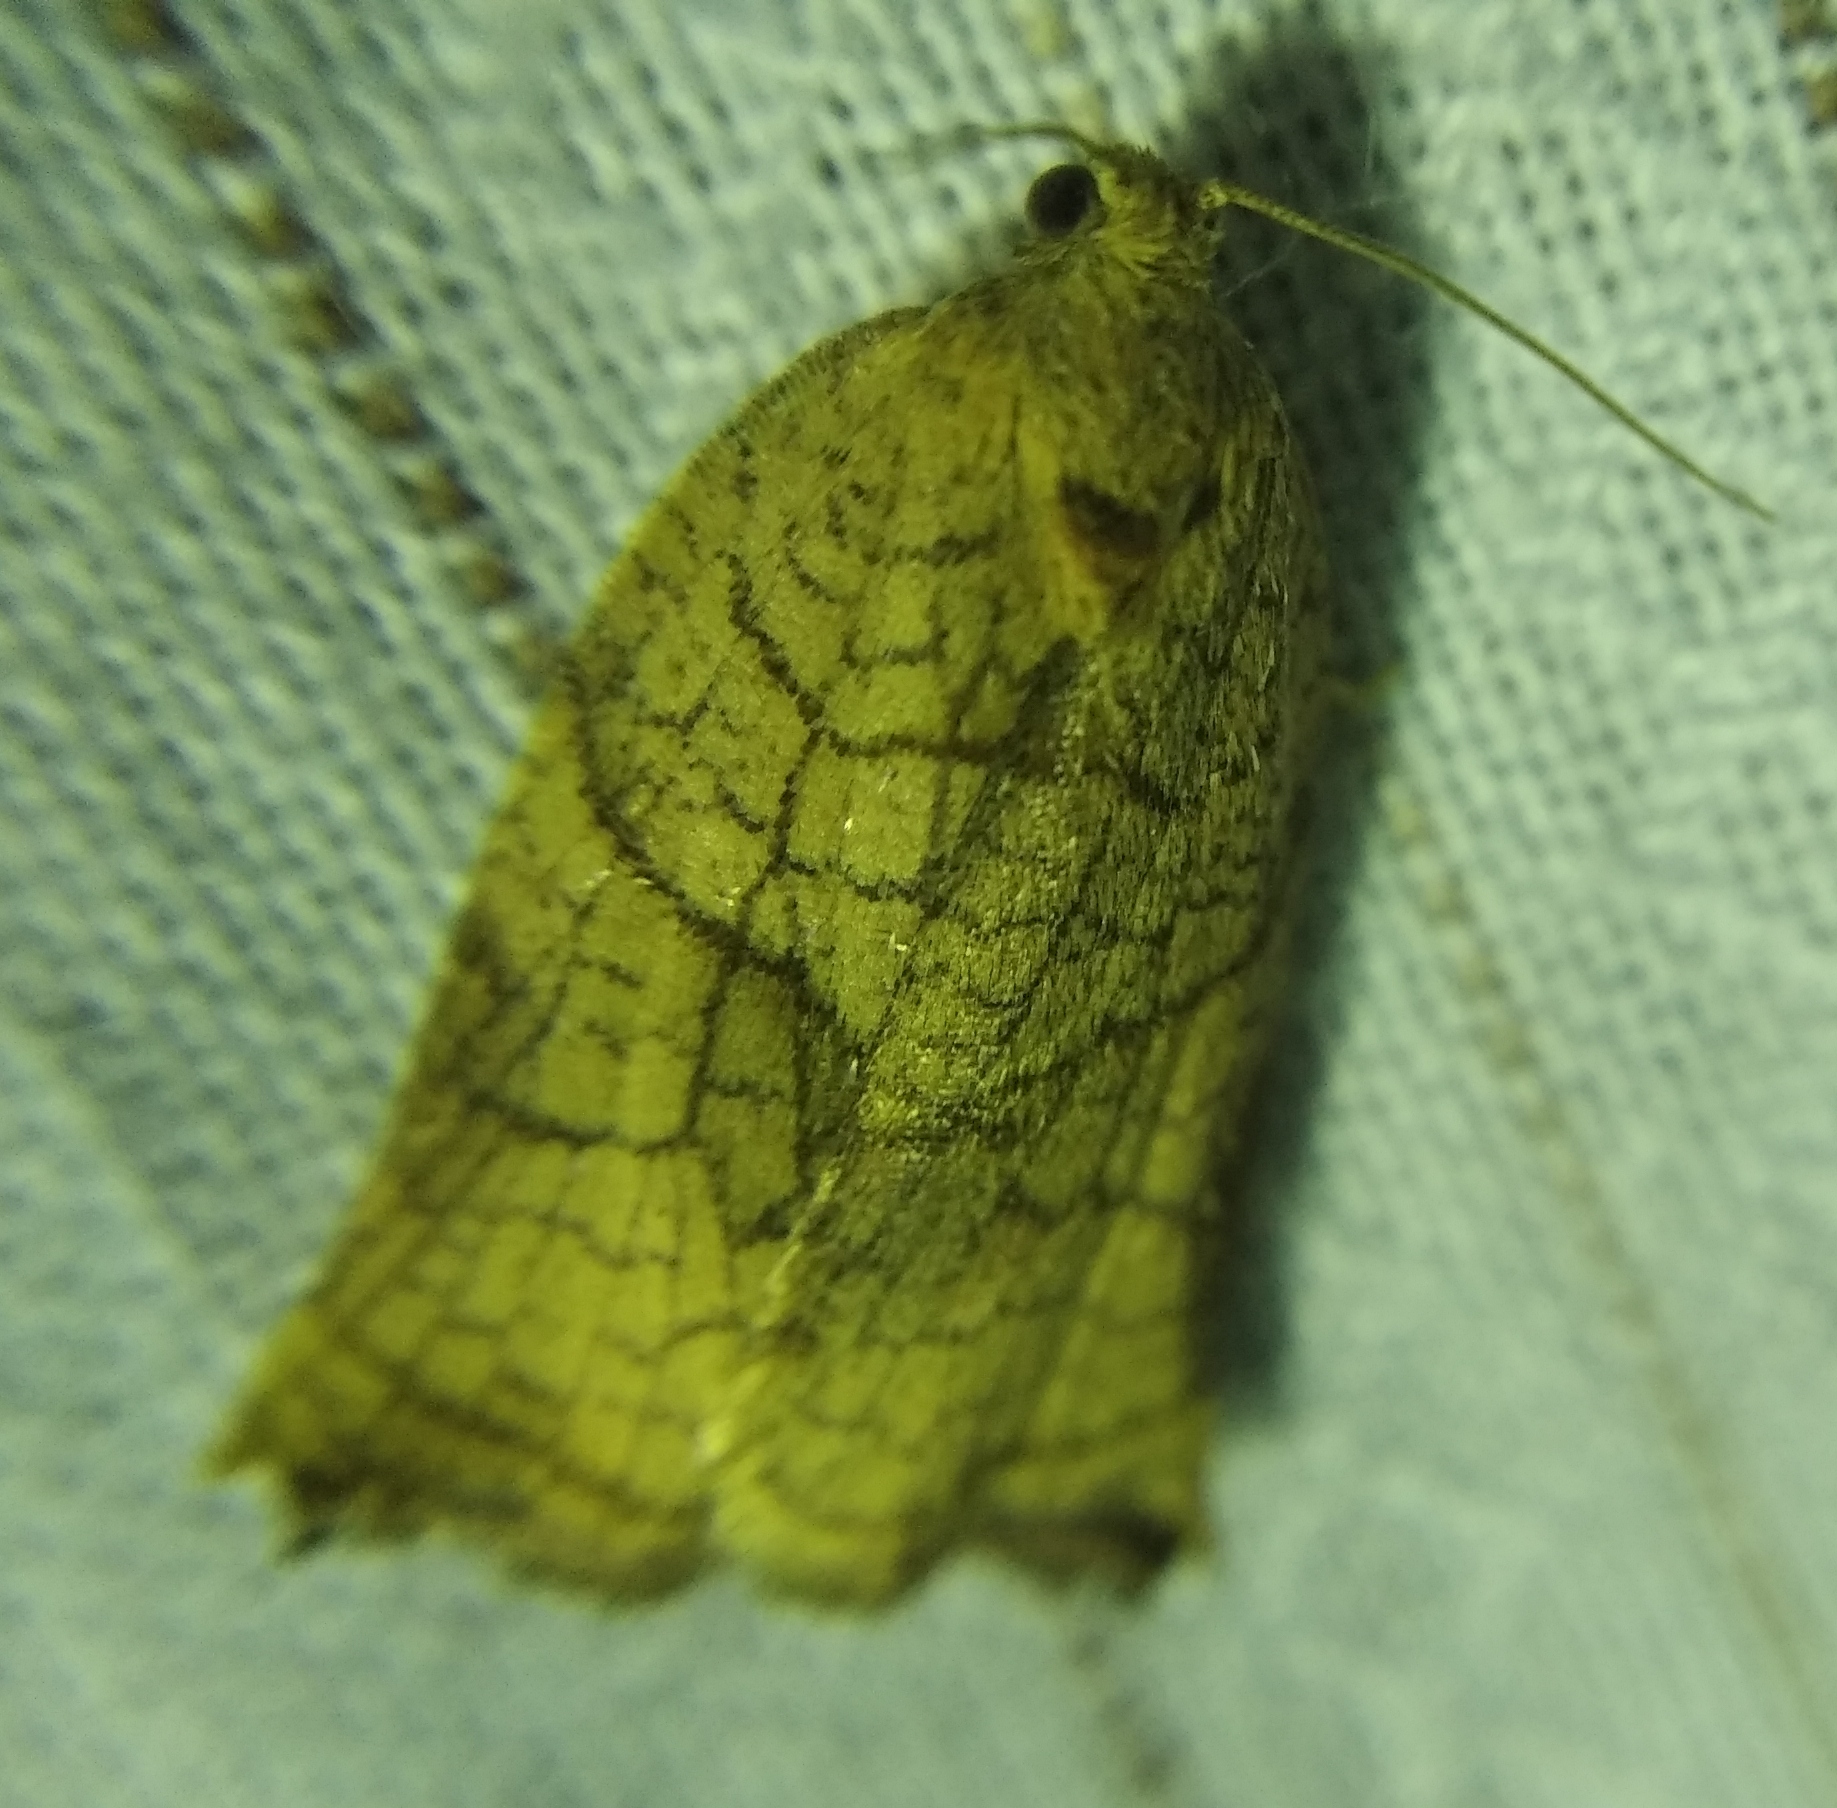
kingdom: Animalia
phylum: Arthropoda
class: Insecta
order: Lepidoptera
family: Tortricidae
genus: Archips
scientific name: Archips podana
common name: Large fruit-tree tortrix
